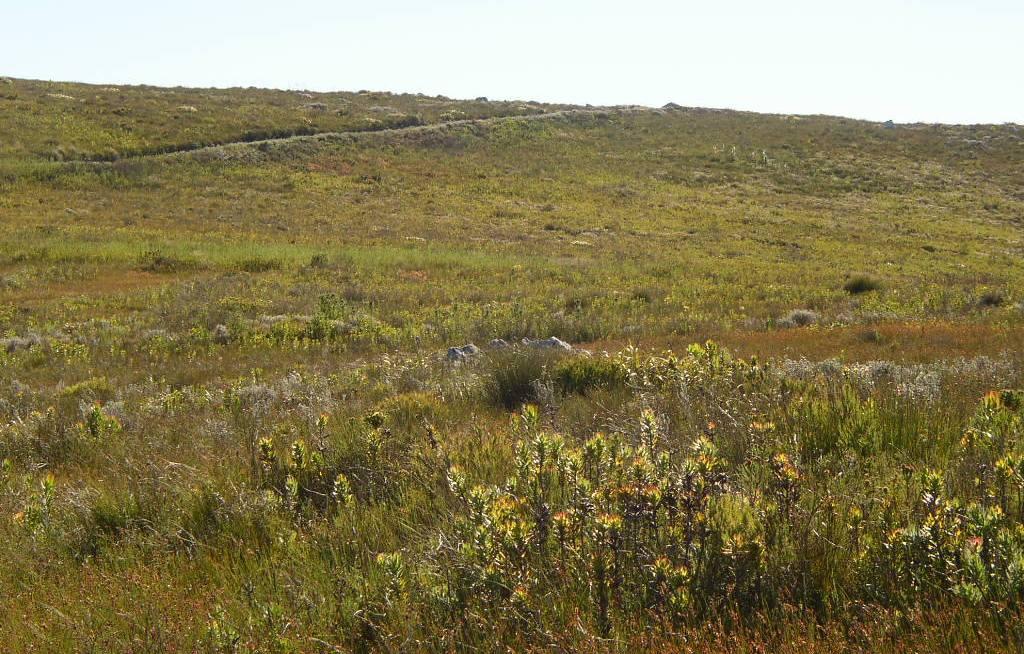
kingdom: Plantae
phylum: Tracheophyta
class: Magnoliopsida
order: Proteales
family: Proteaceae
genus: Mimetes
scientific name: Mimetes cucullatus
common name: Common pagoda
